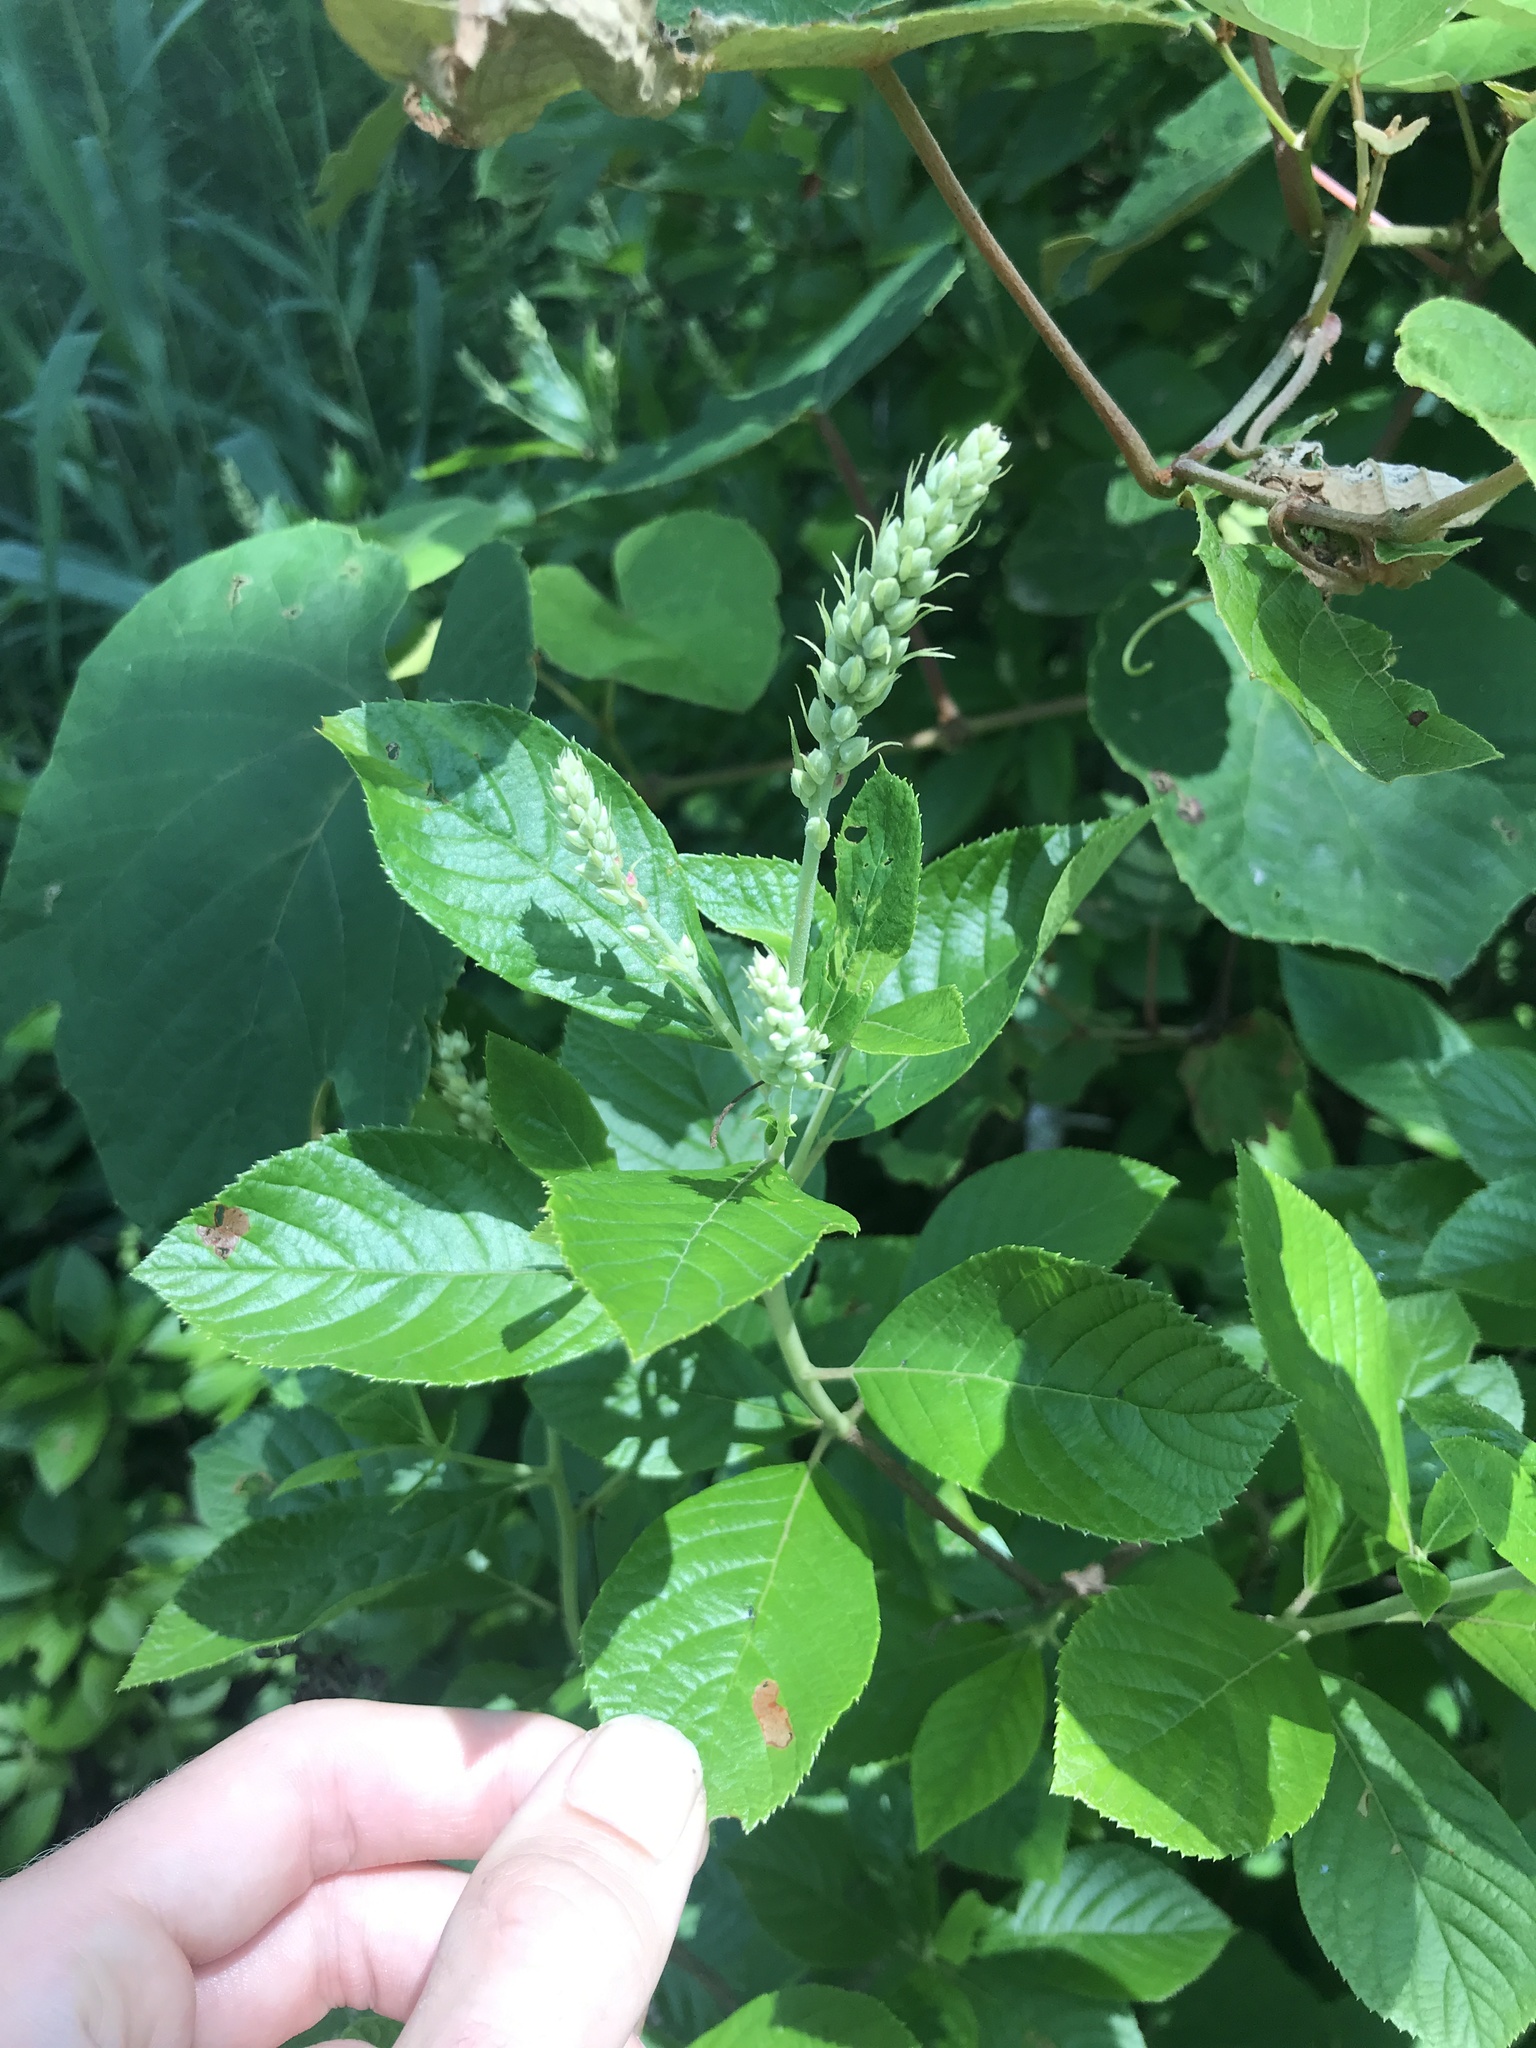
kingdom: Plantae
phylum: Tracheophyta
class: Magnoliopsida
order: Ericales
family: Clethraceae
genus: Clethra
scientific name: Clethra alnifolia
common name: Sweet pepperbush
